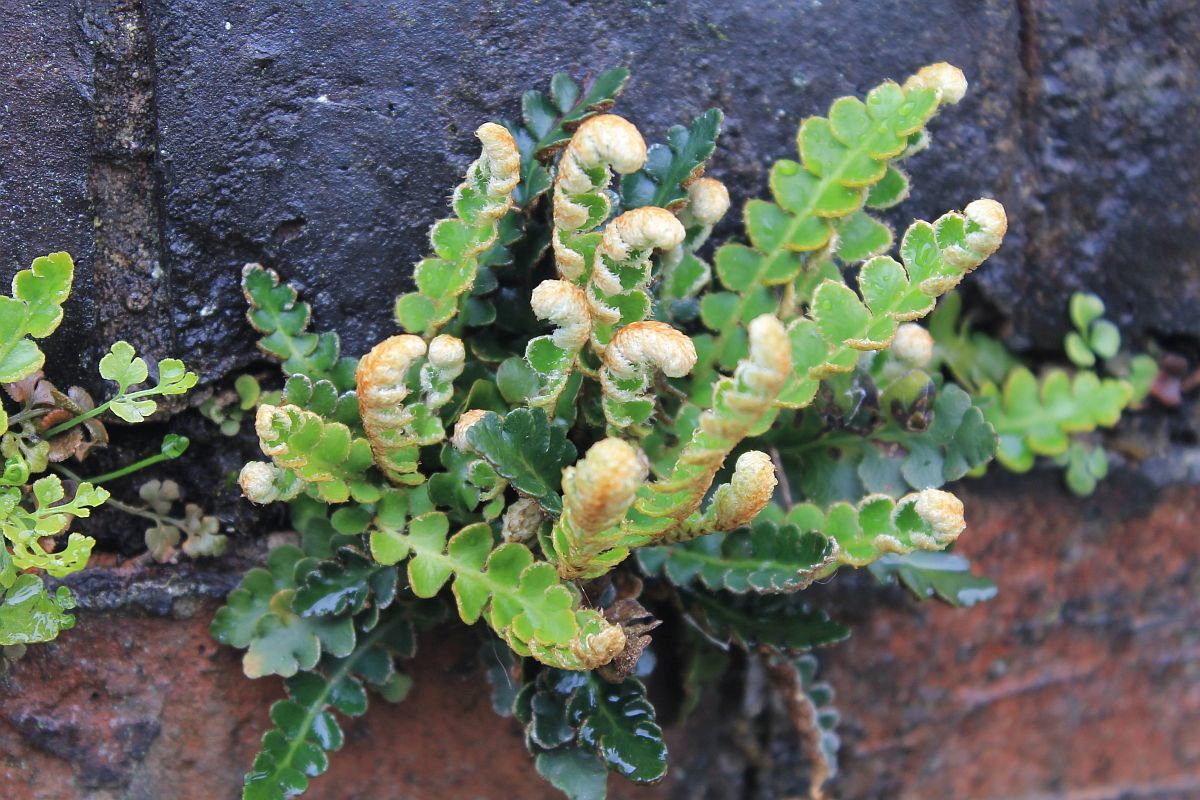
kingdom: Plantae
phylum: Tracheophyta
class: Polypodiopsida
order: Polypodiales
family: Aspleniaceae
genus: Asplenium
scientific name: Asplenium ceterach
